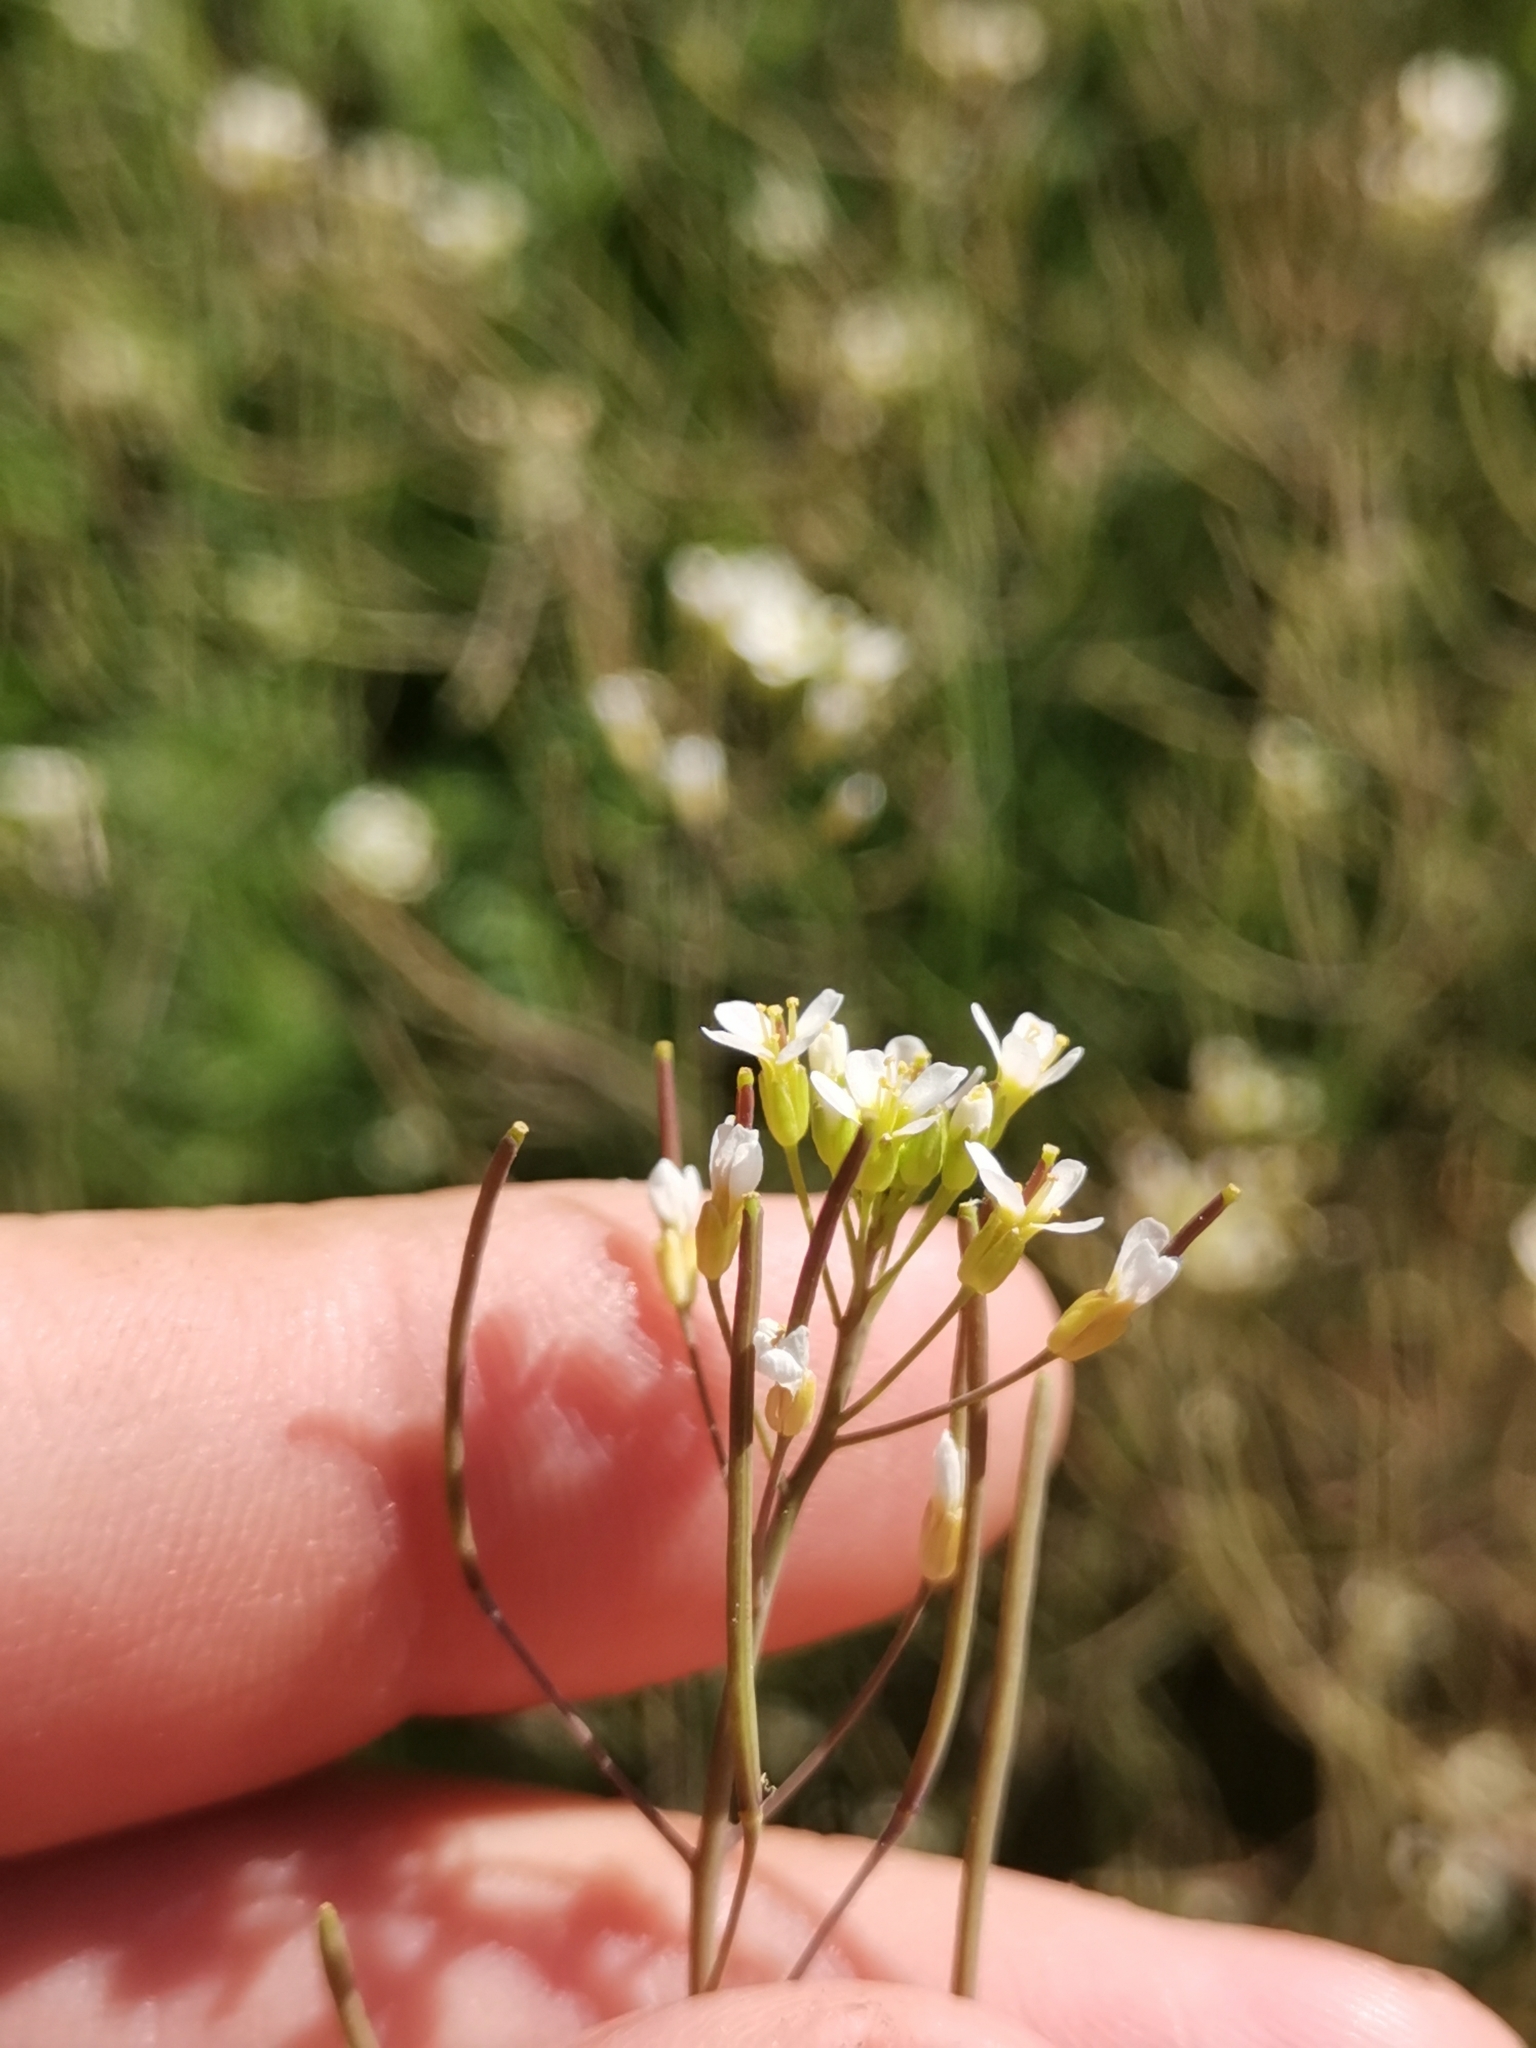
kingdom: Plantae
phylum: Tracheophyta
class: Magnoliopsida
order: Brassicales
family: Brassicaceae
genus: Arabidopsis
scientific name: Arabidopsis thaliana
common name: Thale cress
